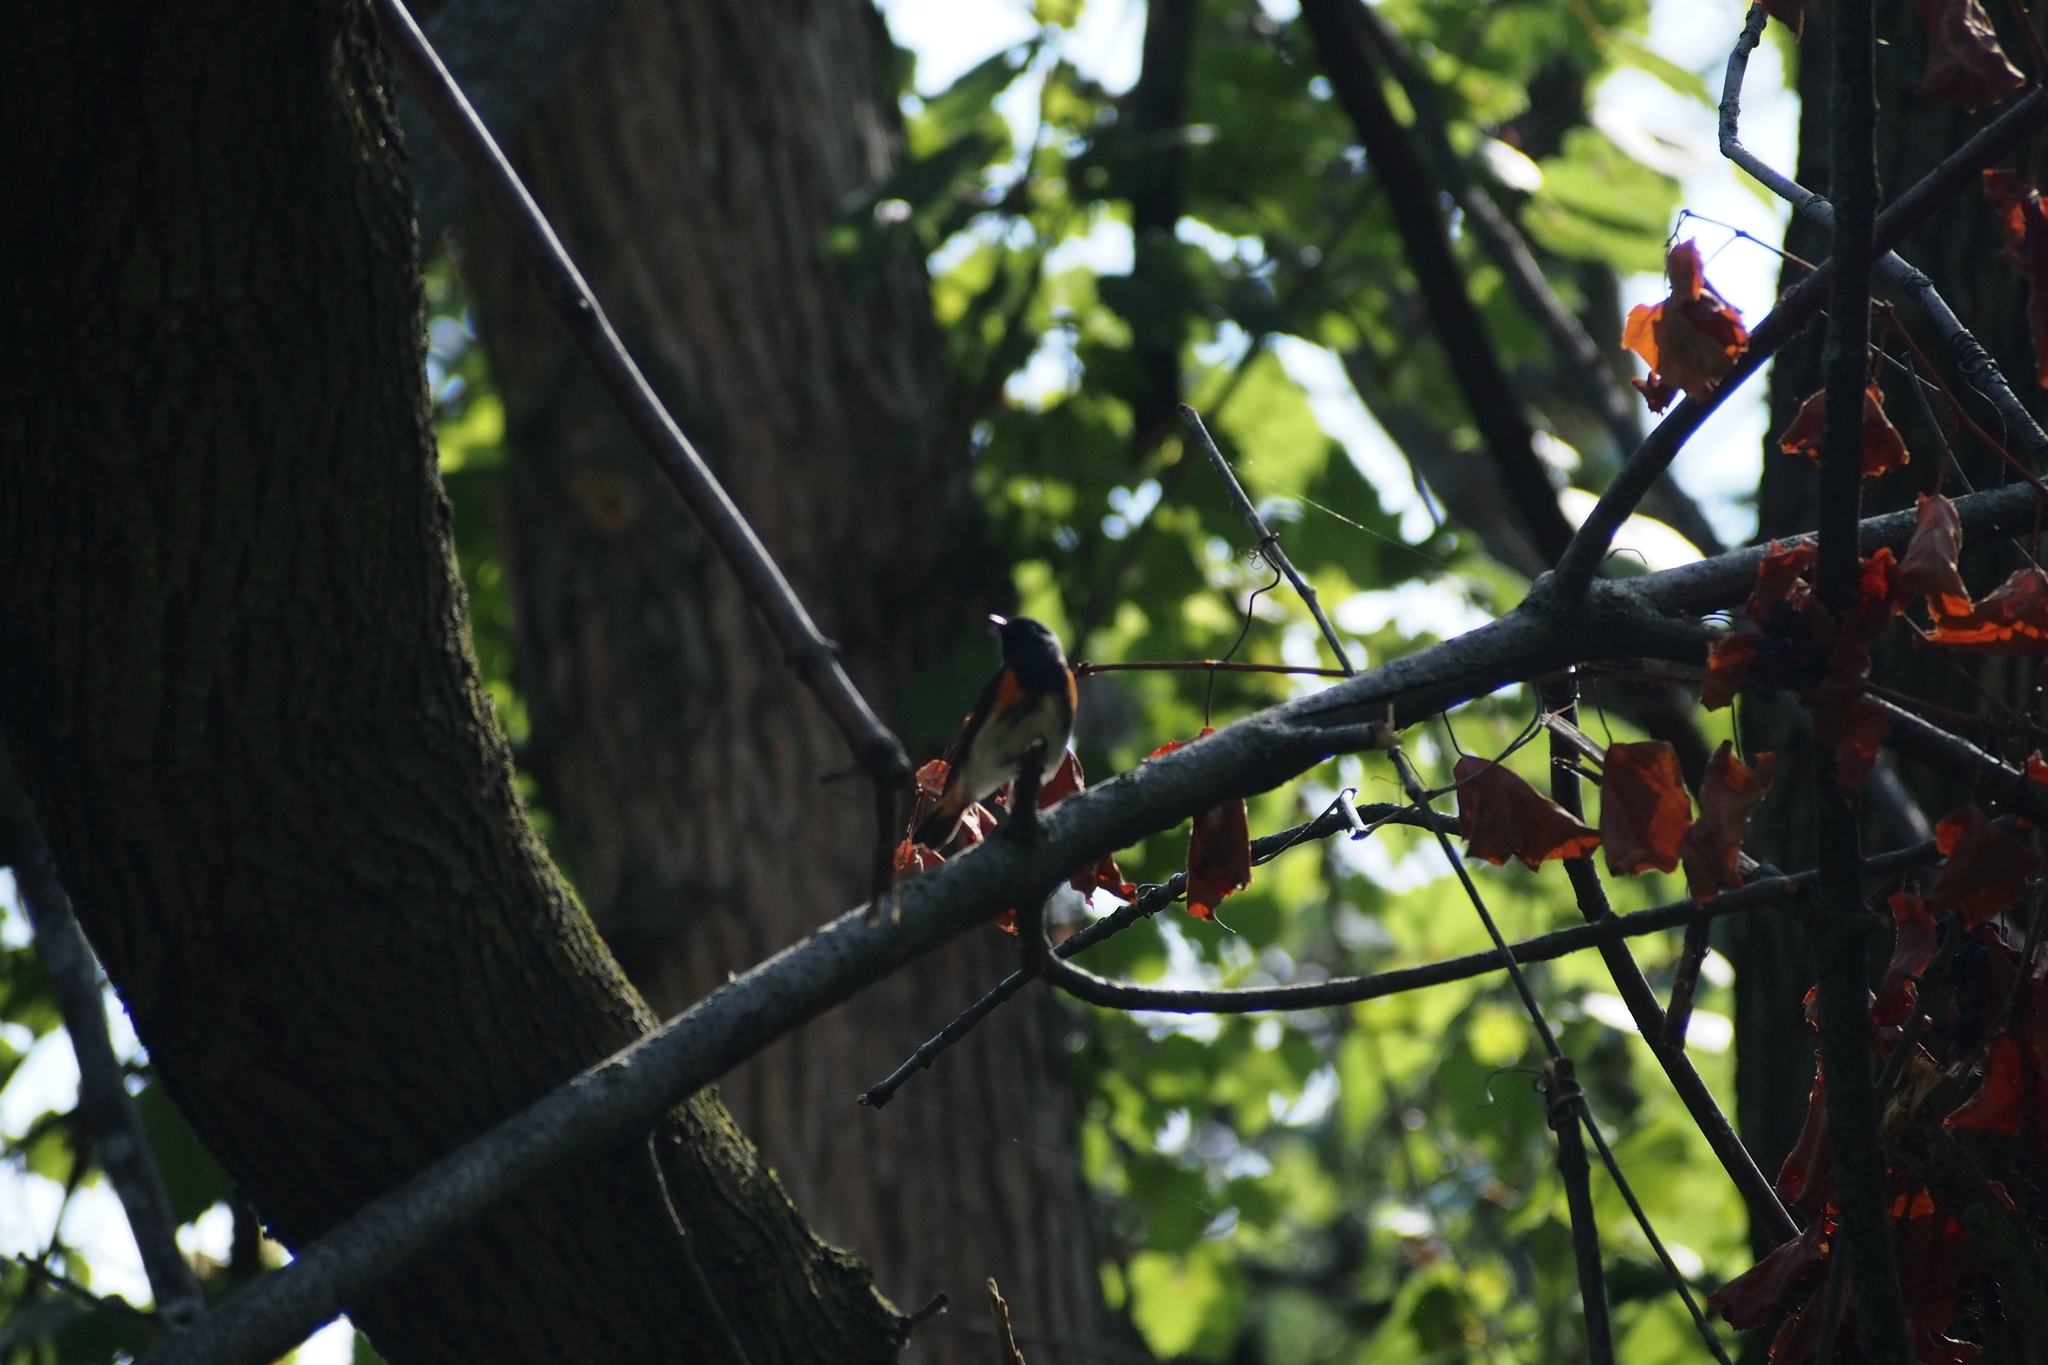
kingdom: Animalia
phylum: Chordata
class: Aves
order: Passeriformes
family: Parulidae
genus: Setophaga
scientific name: Setophaga ruticilla
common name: American redstart
